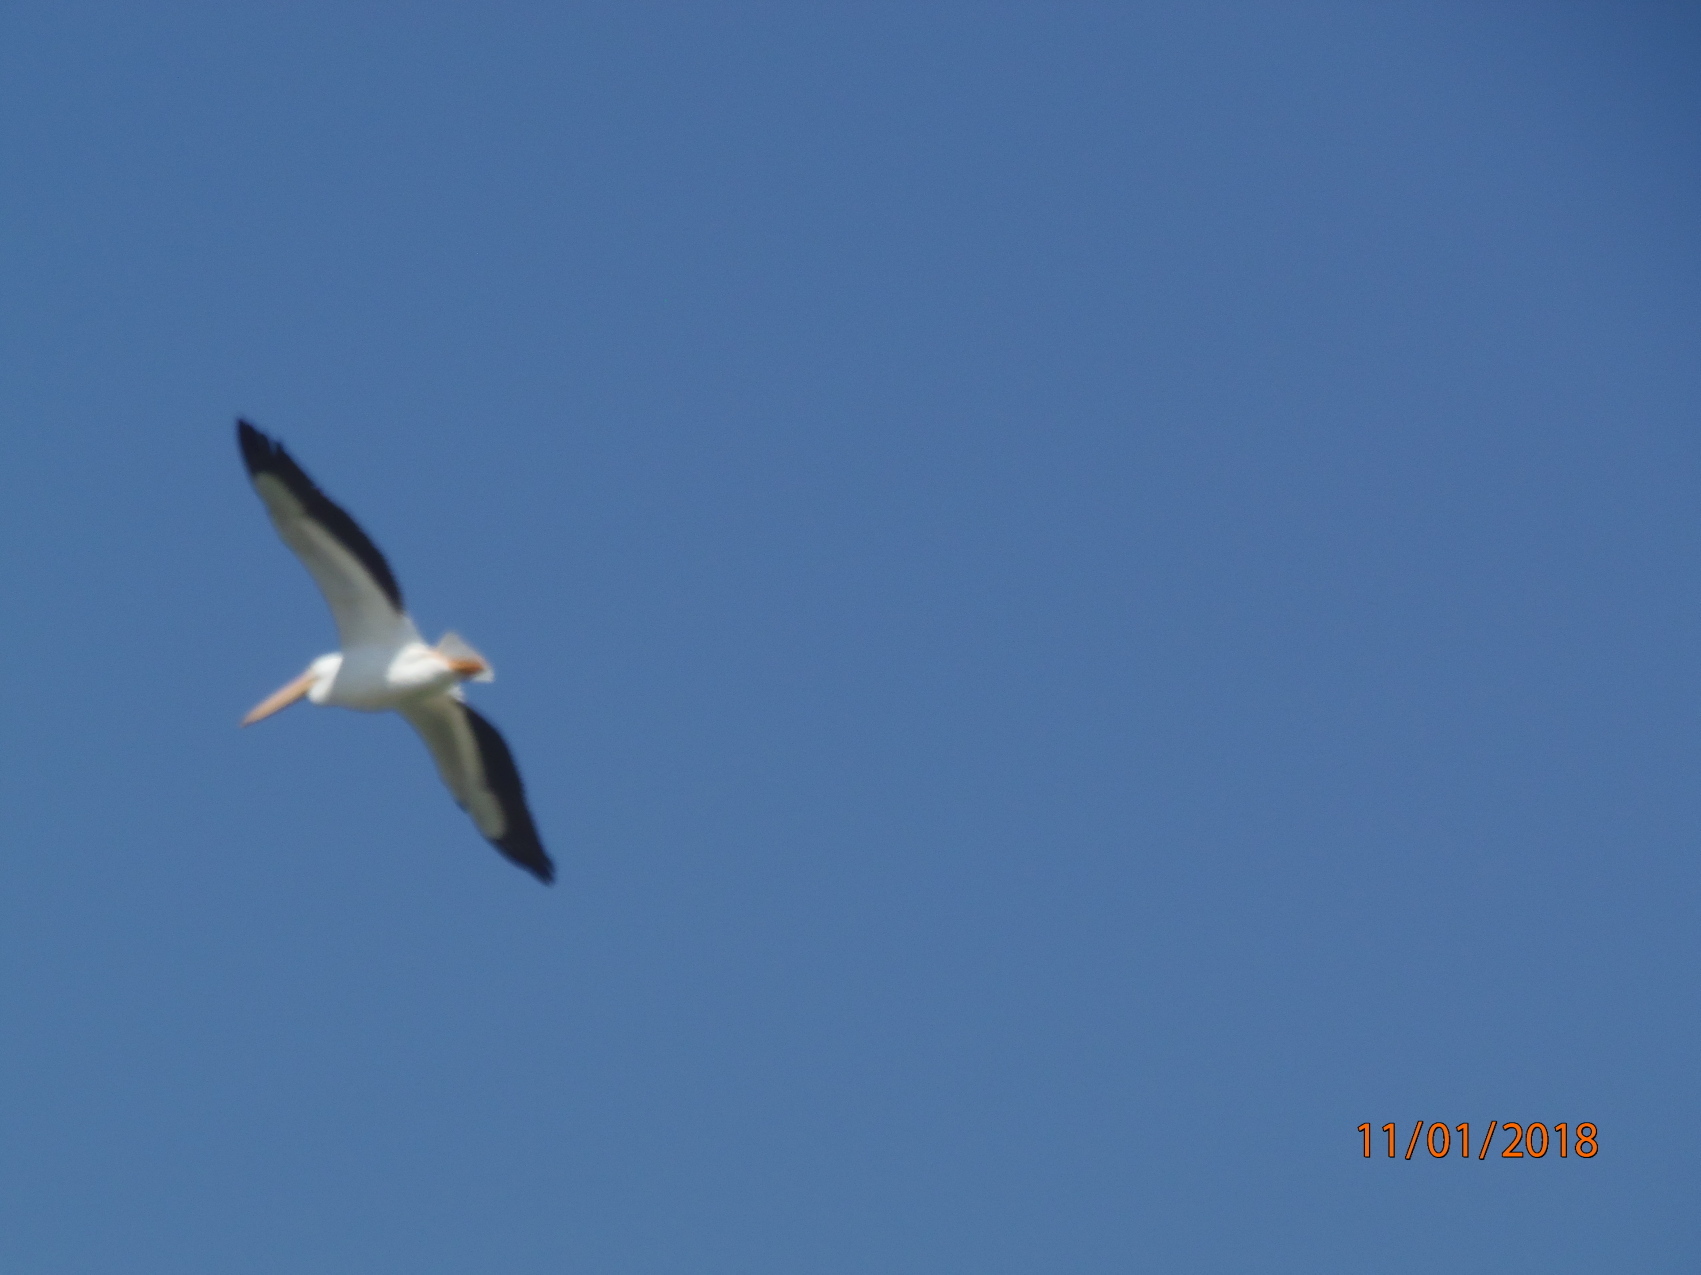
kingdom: Animalia
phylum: Chordata
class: Aves
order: Pelecaniformes
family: Pelecanidae
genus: Pelecanus
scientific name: Pelecanus erythrorhynchos
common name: American white pelican
